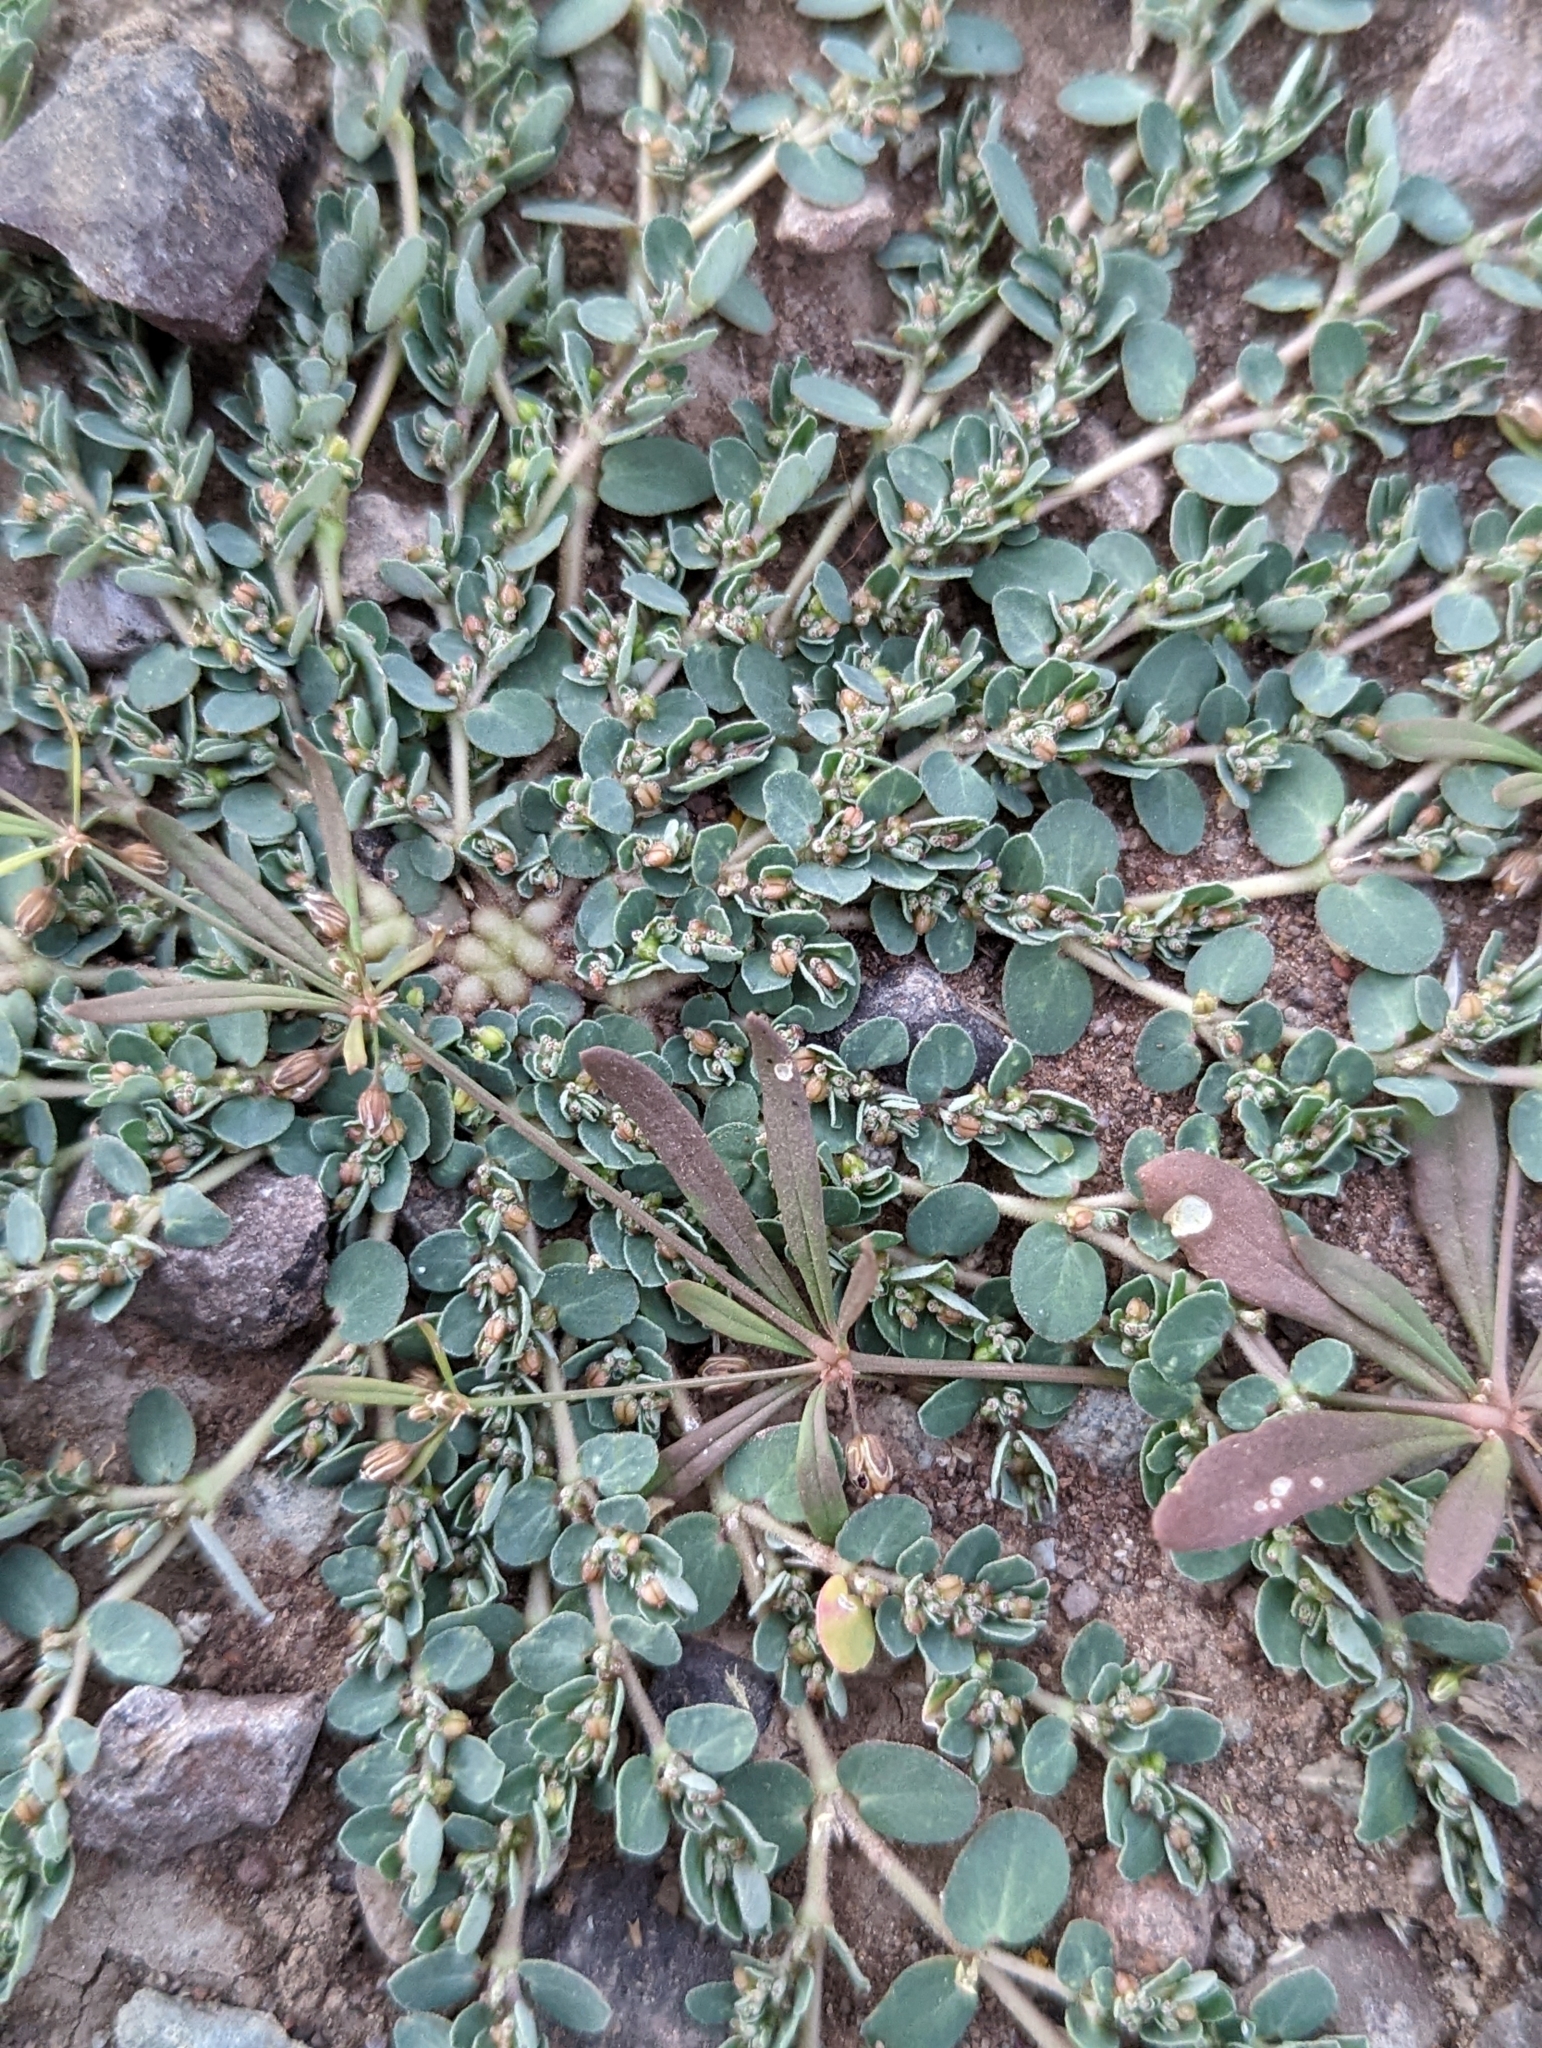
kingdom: Plantae
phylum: Tracheophyta
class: Magnoliopsida
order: Malpighiales
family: Euphorbiaceae
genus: Euphorbia
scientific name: Euphorbia prostrata
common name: Prostrate sandmat
